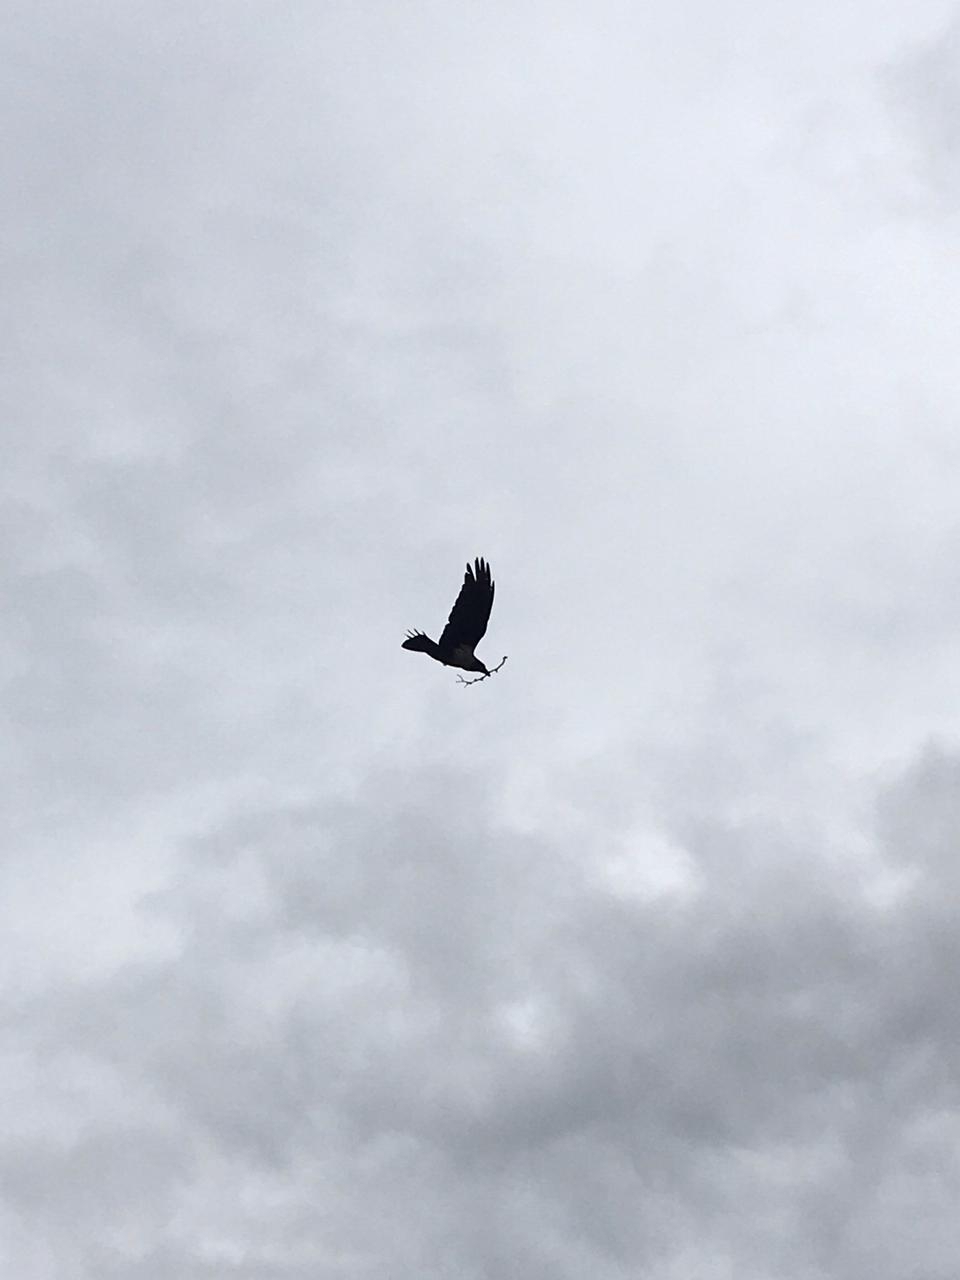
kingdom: Animalia
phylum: Chordata
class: Aves
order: Passeriformes
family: Corvidae
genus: Corvus
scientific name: Corvus albus
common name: Pied crow
